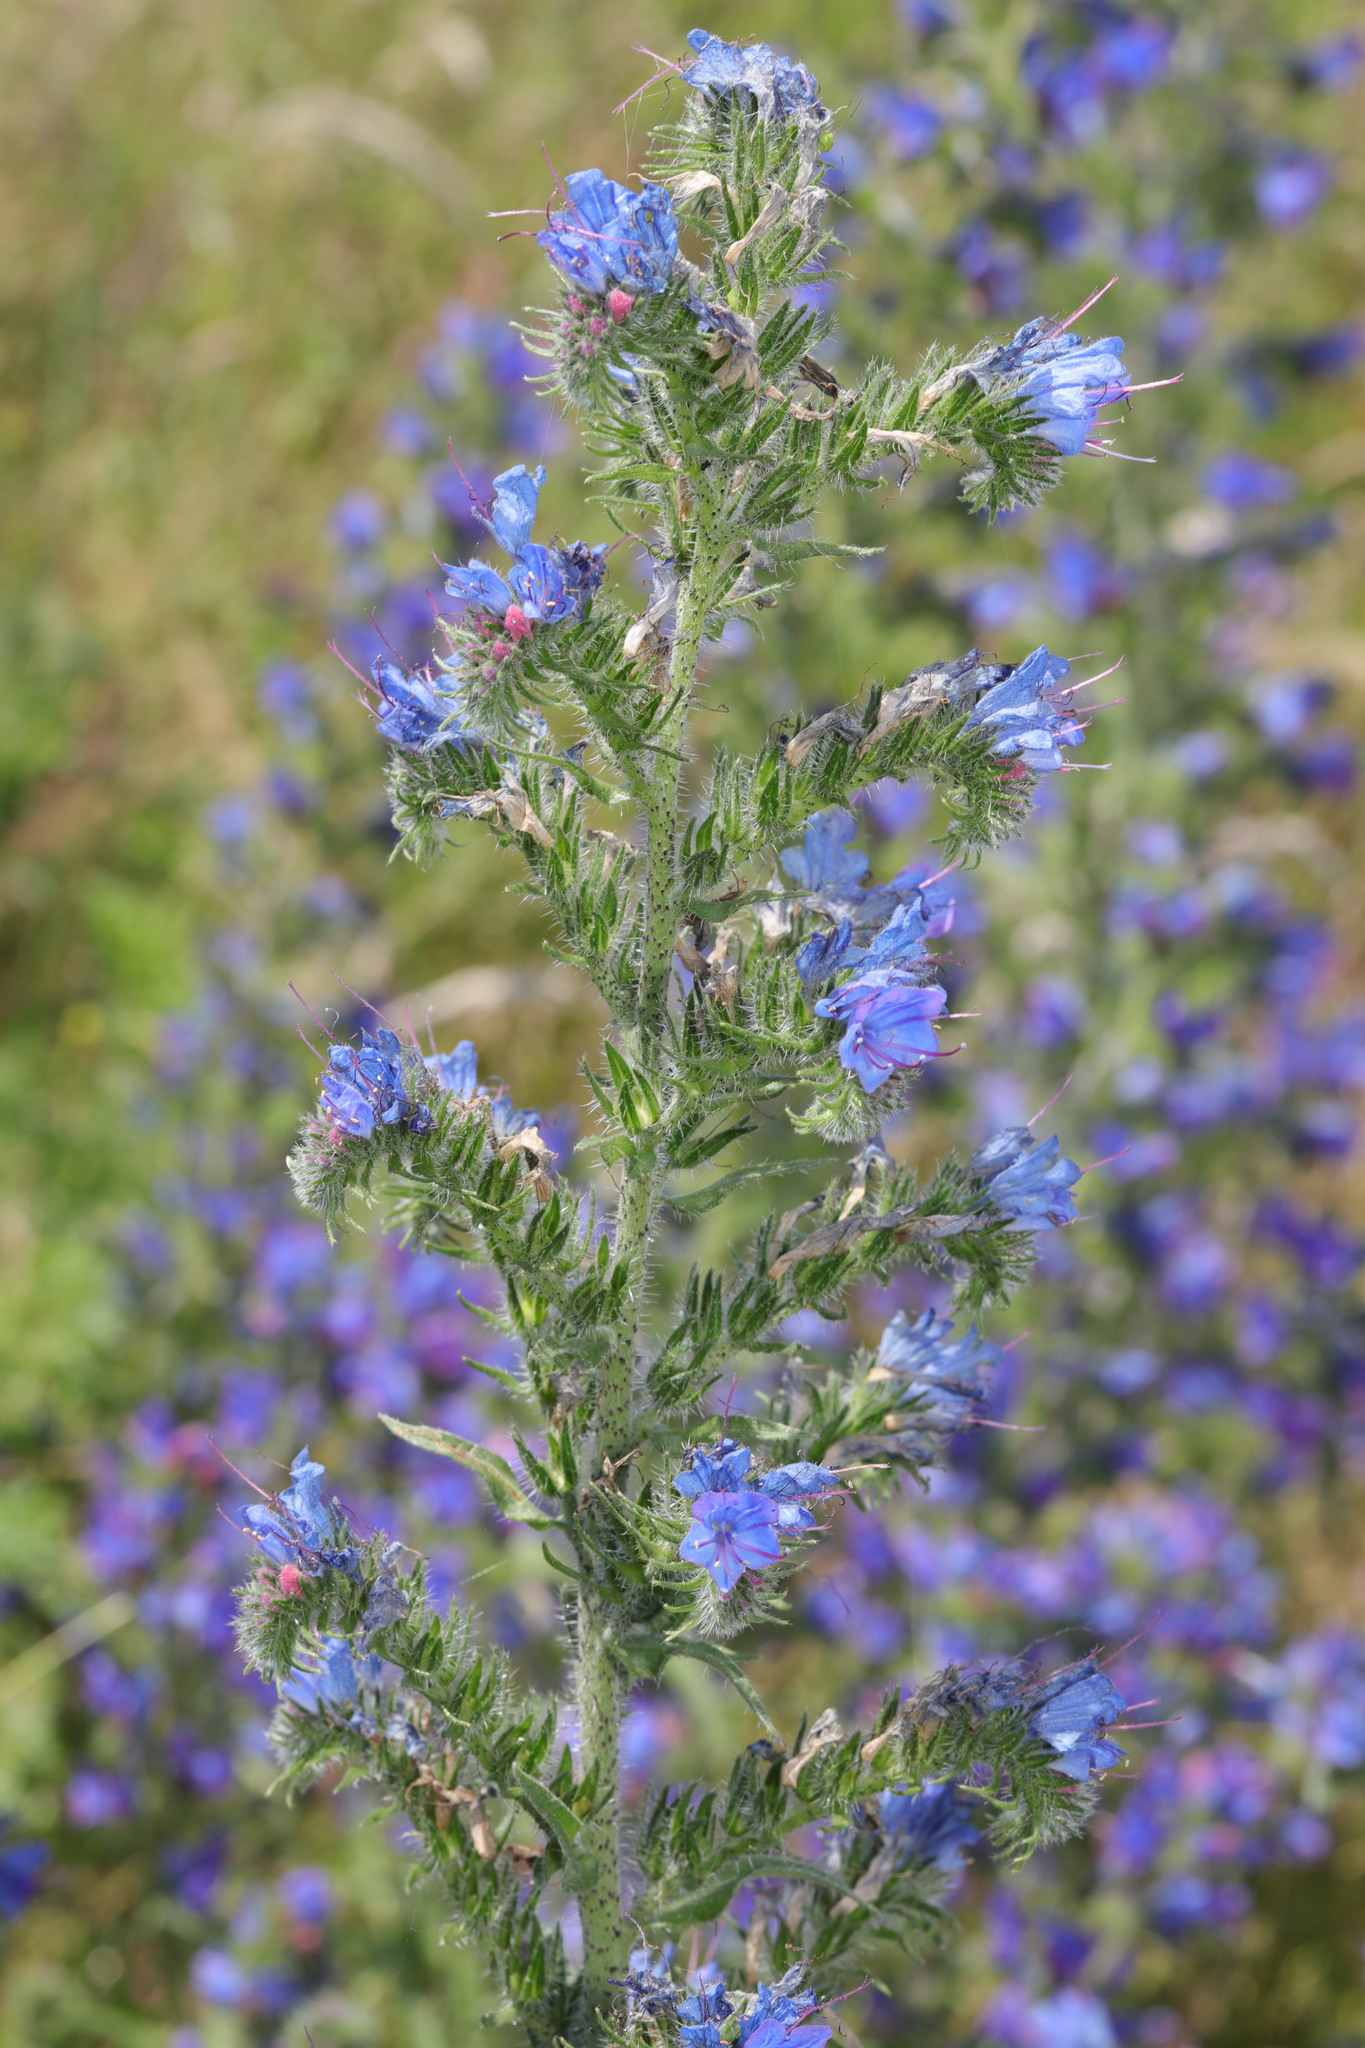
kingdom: Plantae
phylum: Tracheophyta
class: Magnoliopsida
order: Boraginales
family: Boraginaceae
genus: Echium
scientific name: Echium vulgare
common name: Common viper's bugloss
